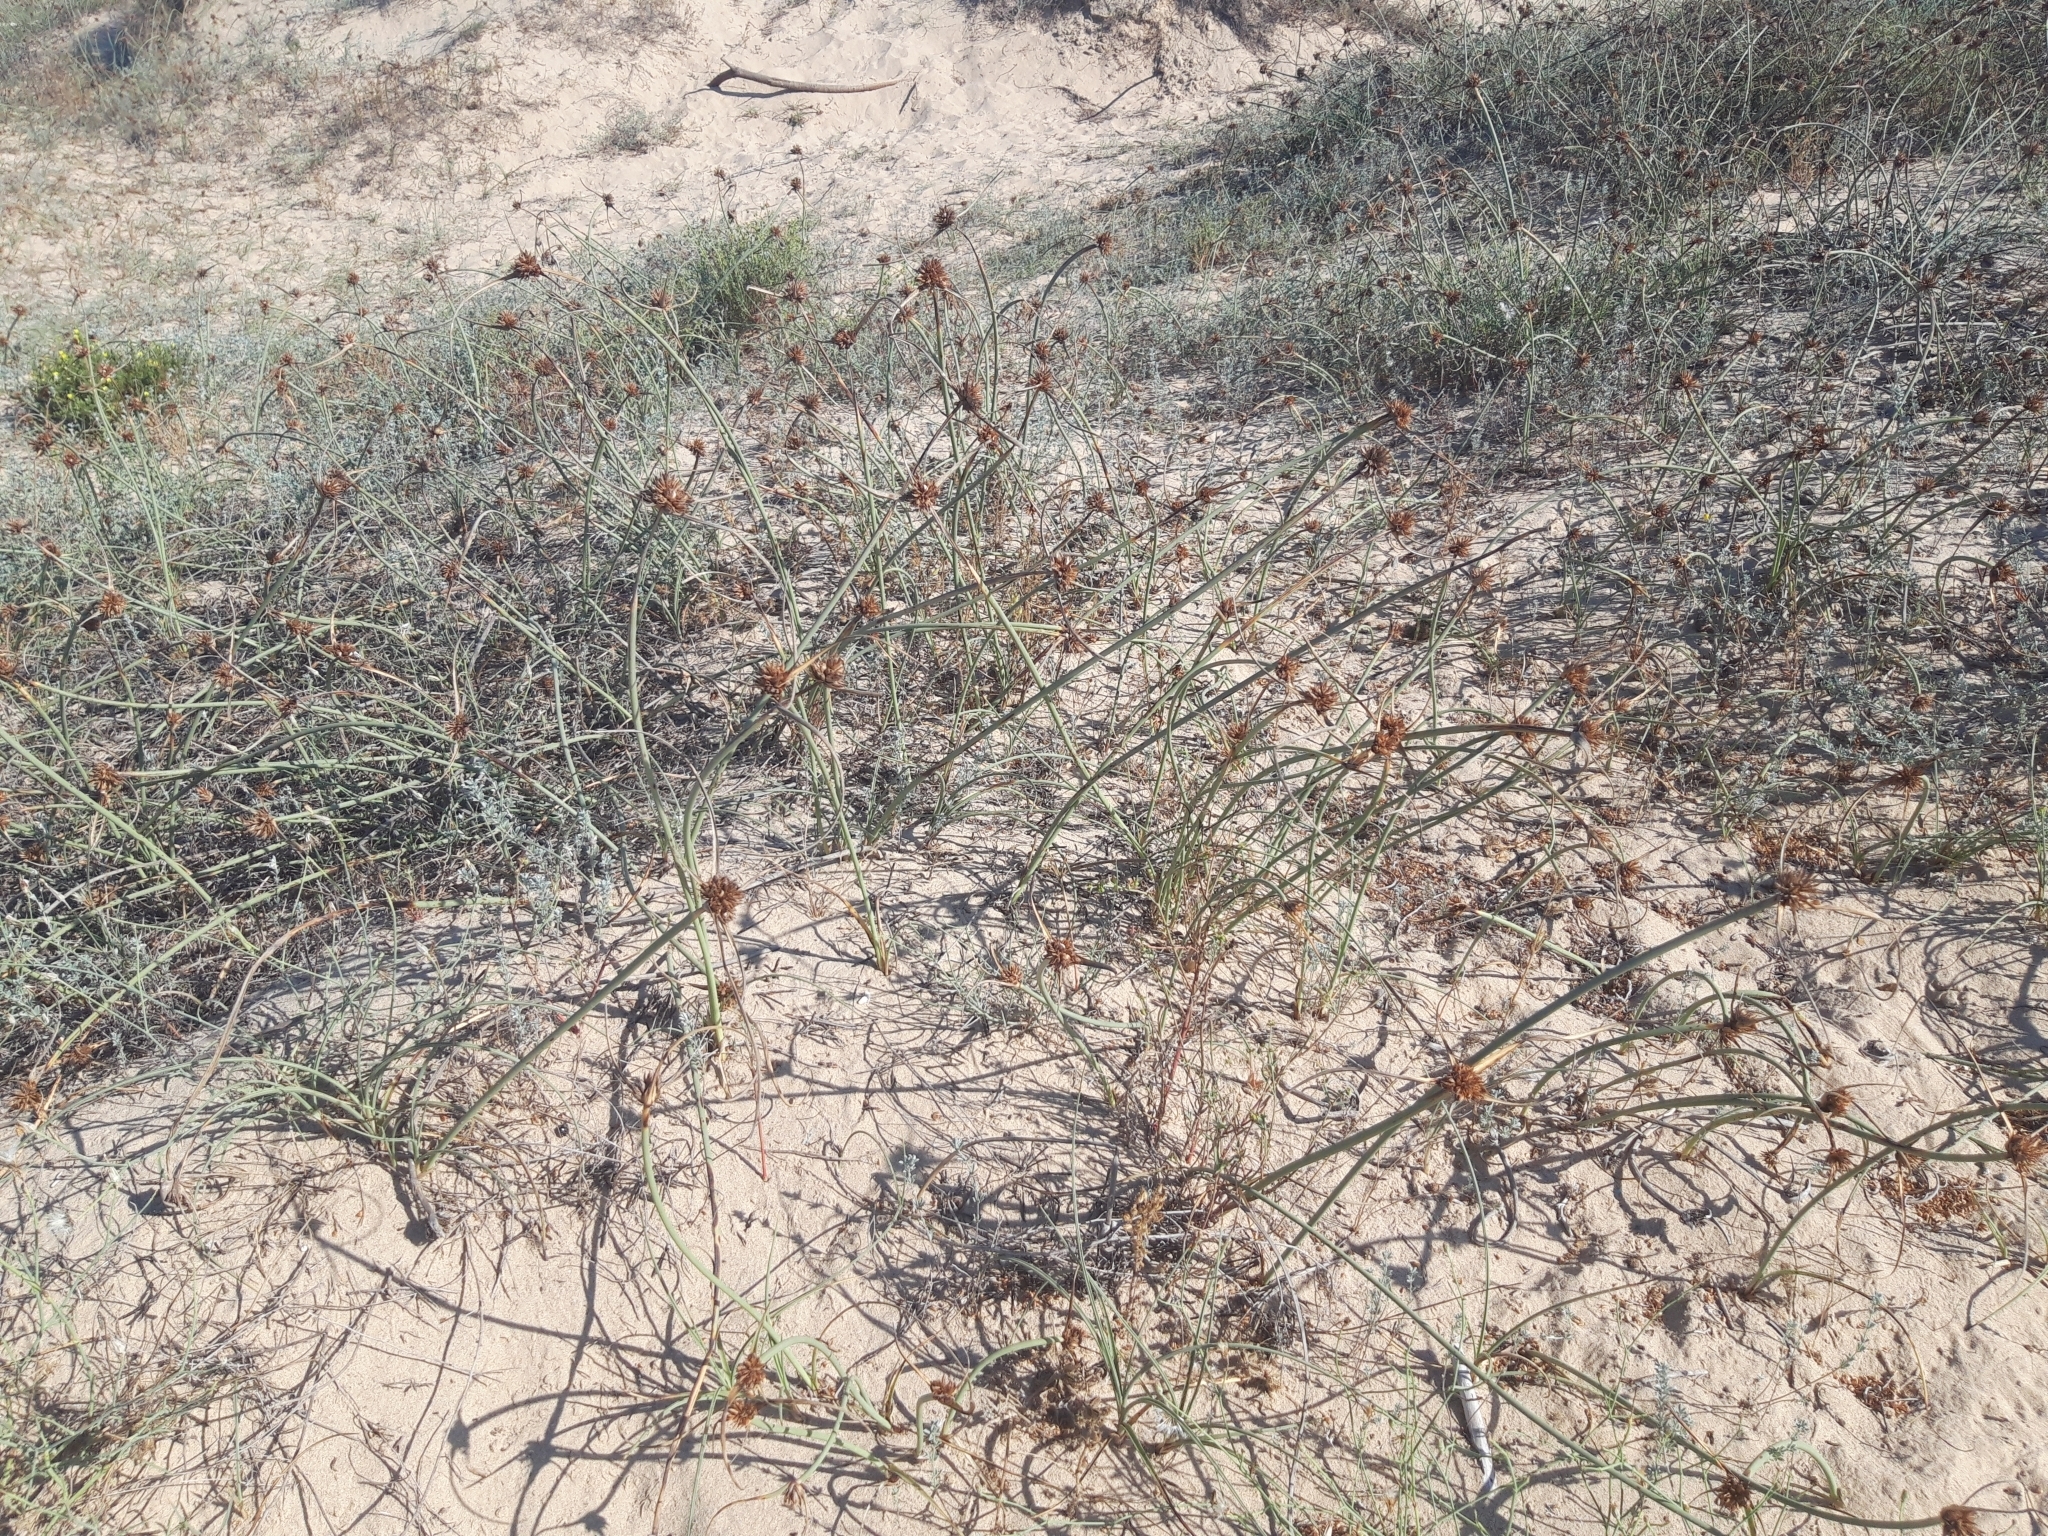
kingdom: Plantae
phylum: Tracheophyta
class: Liliopsida
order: Poales
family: Cyperaceae
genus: Cyperus
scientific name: Cyperus capitatus
